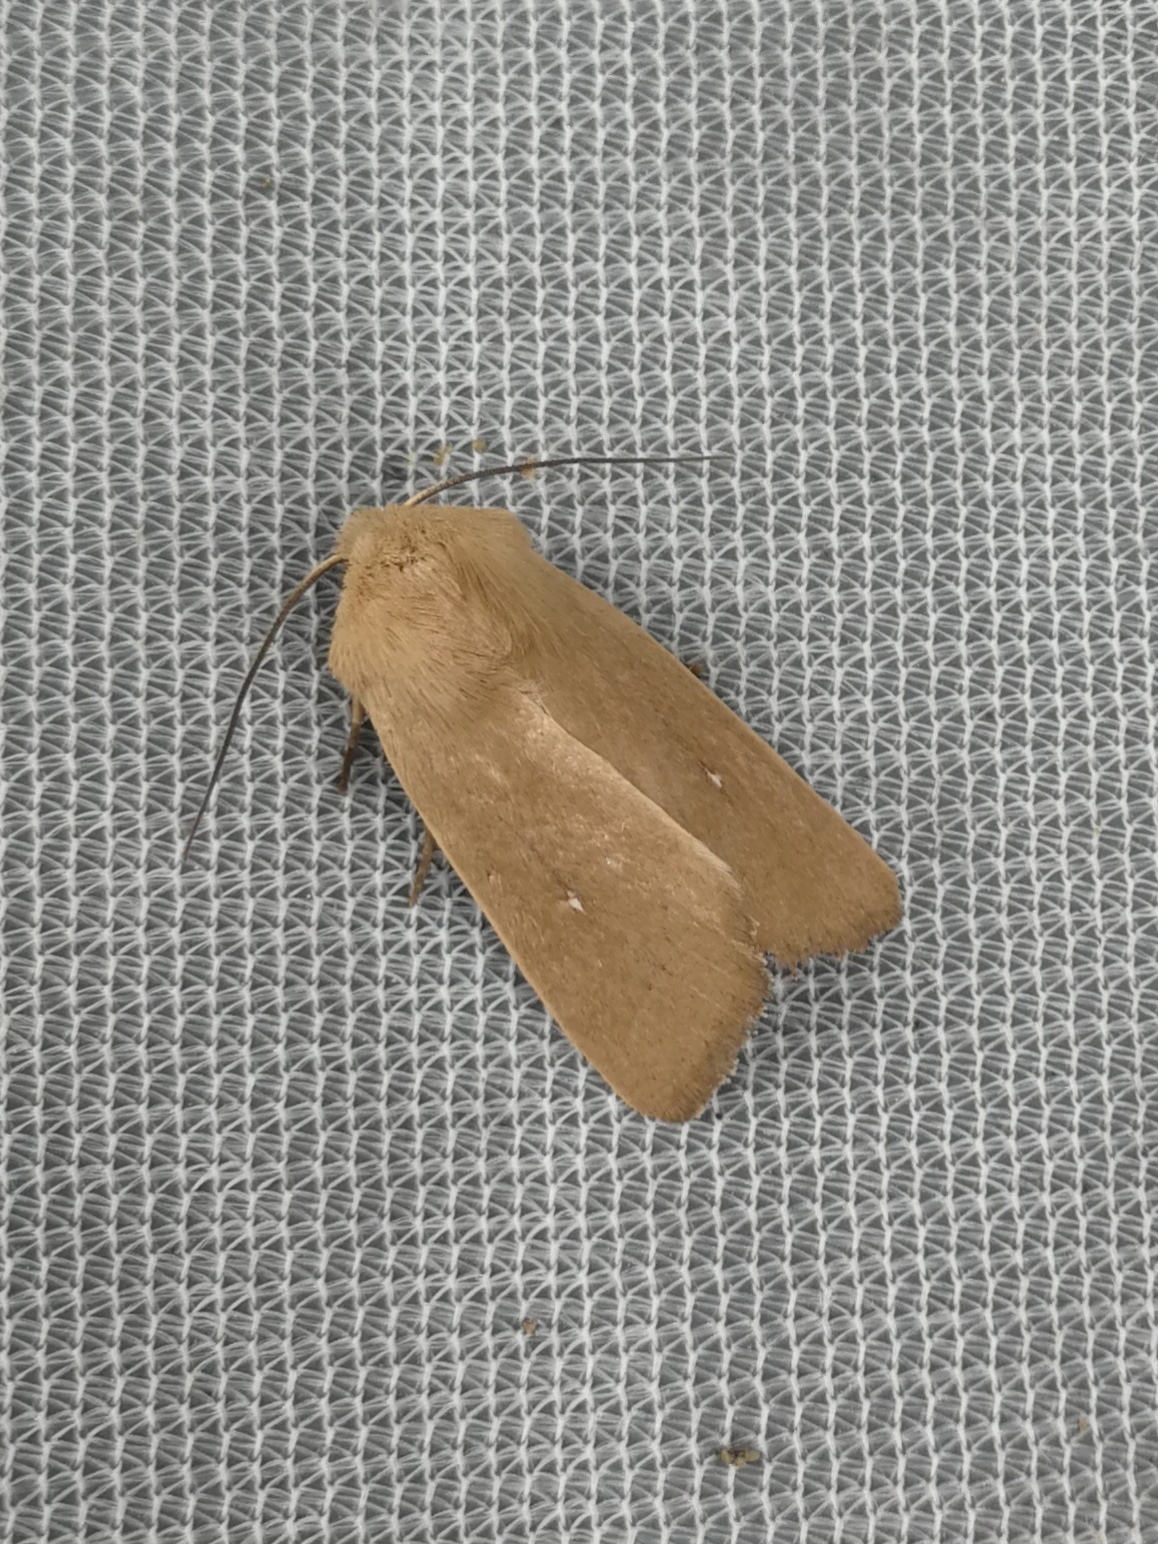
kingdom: Animalia
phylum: Arthropoda
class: Insecta
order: Lepidoptera
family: Noctuidae
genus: Mythimna
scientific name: Mythimna sicula
